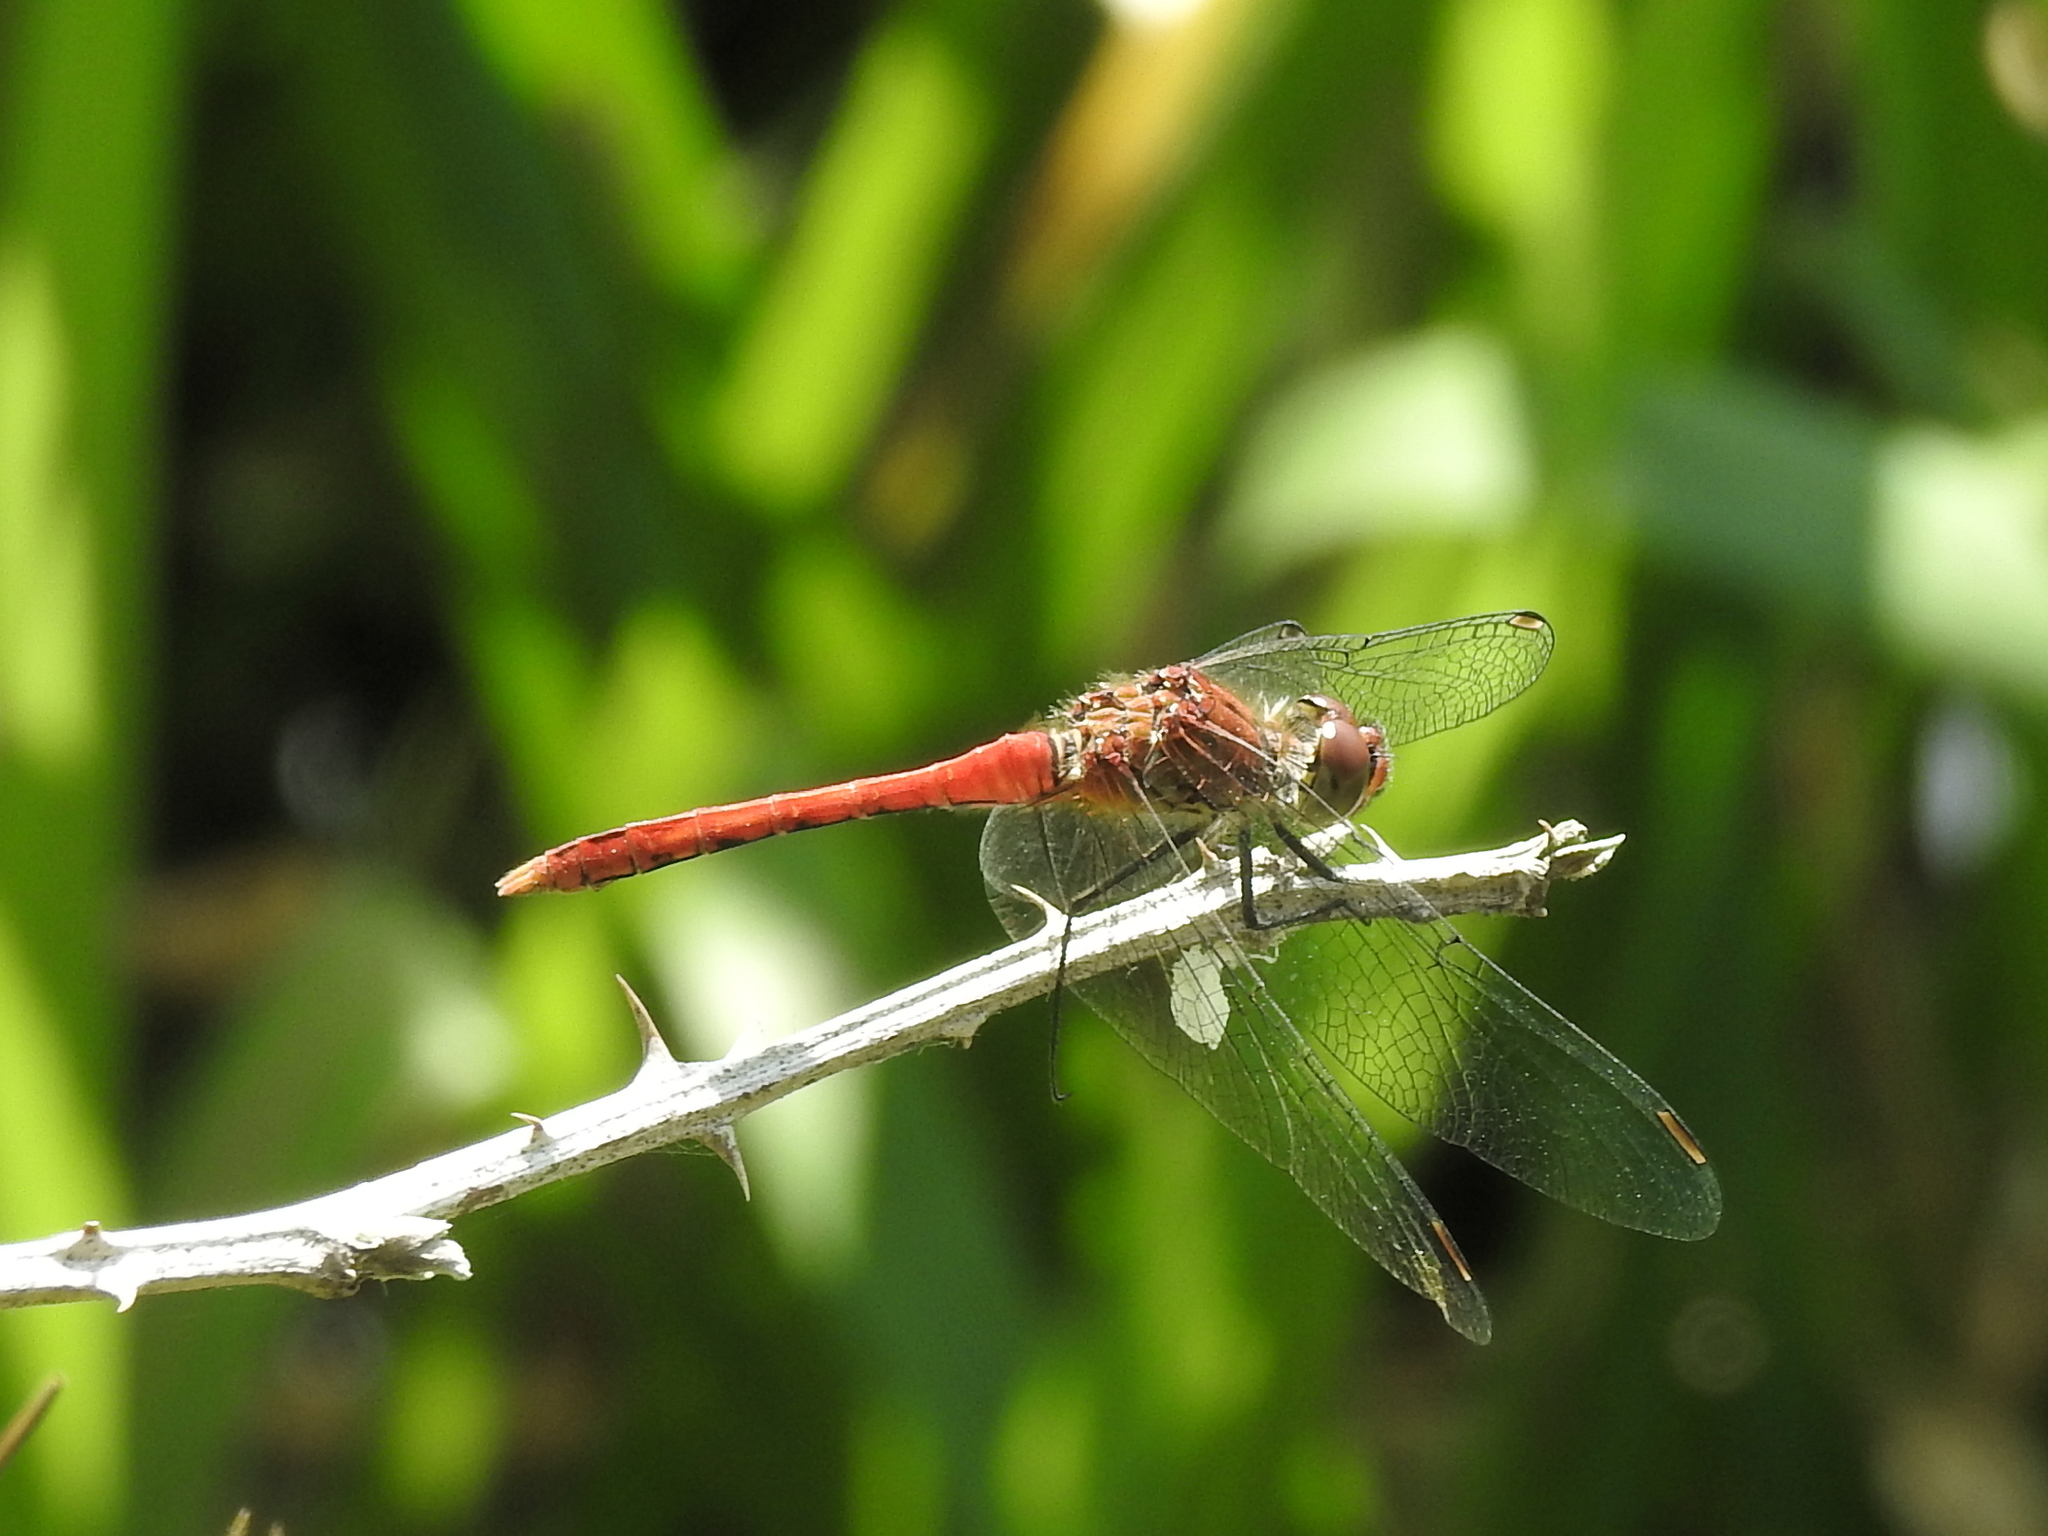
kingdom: Animalia
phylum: Arthropoda
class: Insecta
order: Odonata
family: Libellulidae
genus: Sympetrum
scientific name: Sympetrum sanguineum
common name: Ruddy darter
